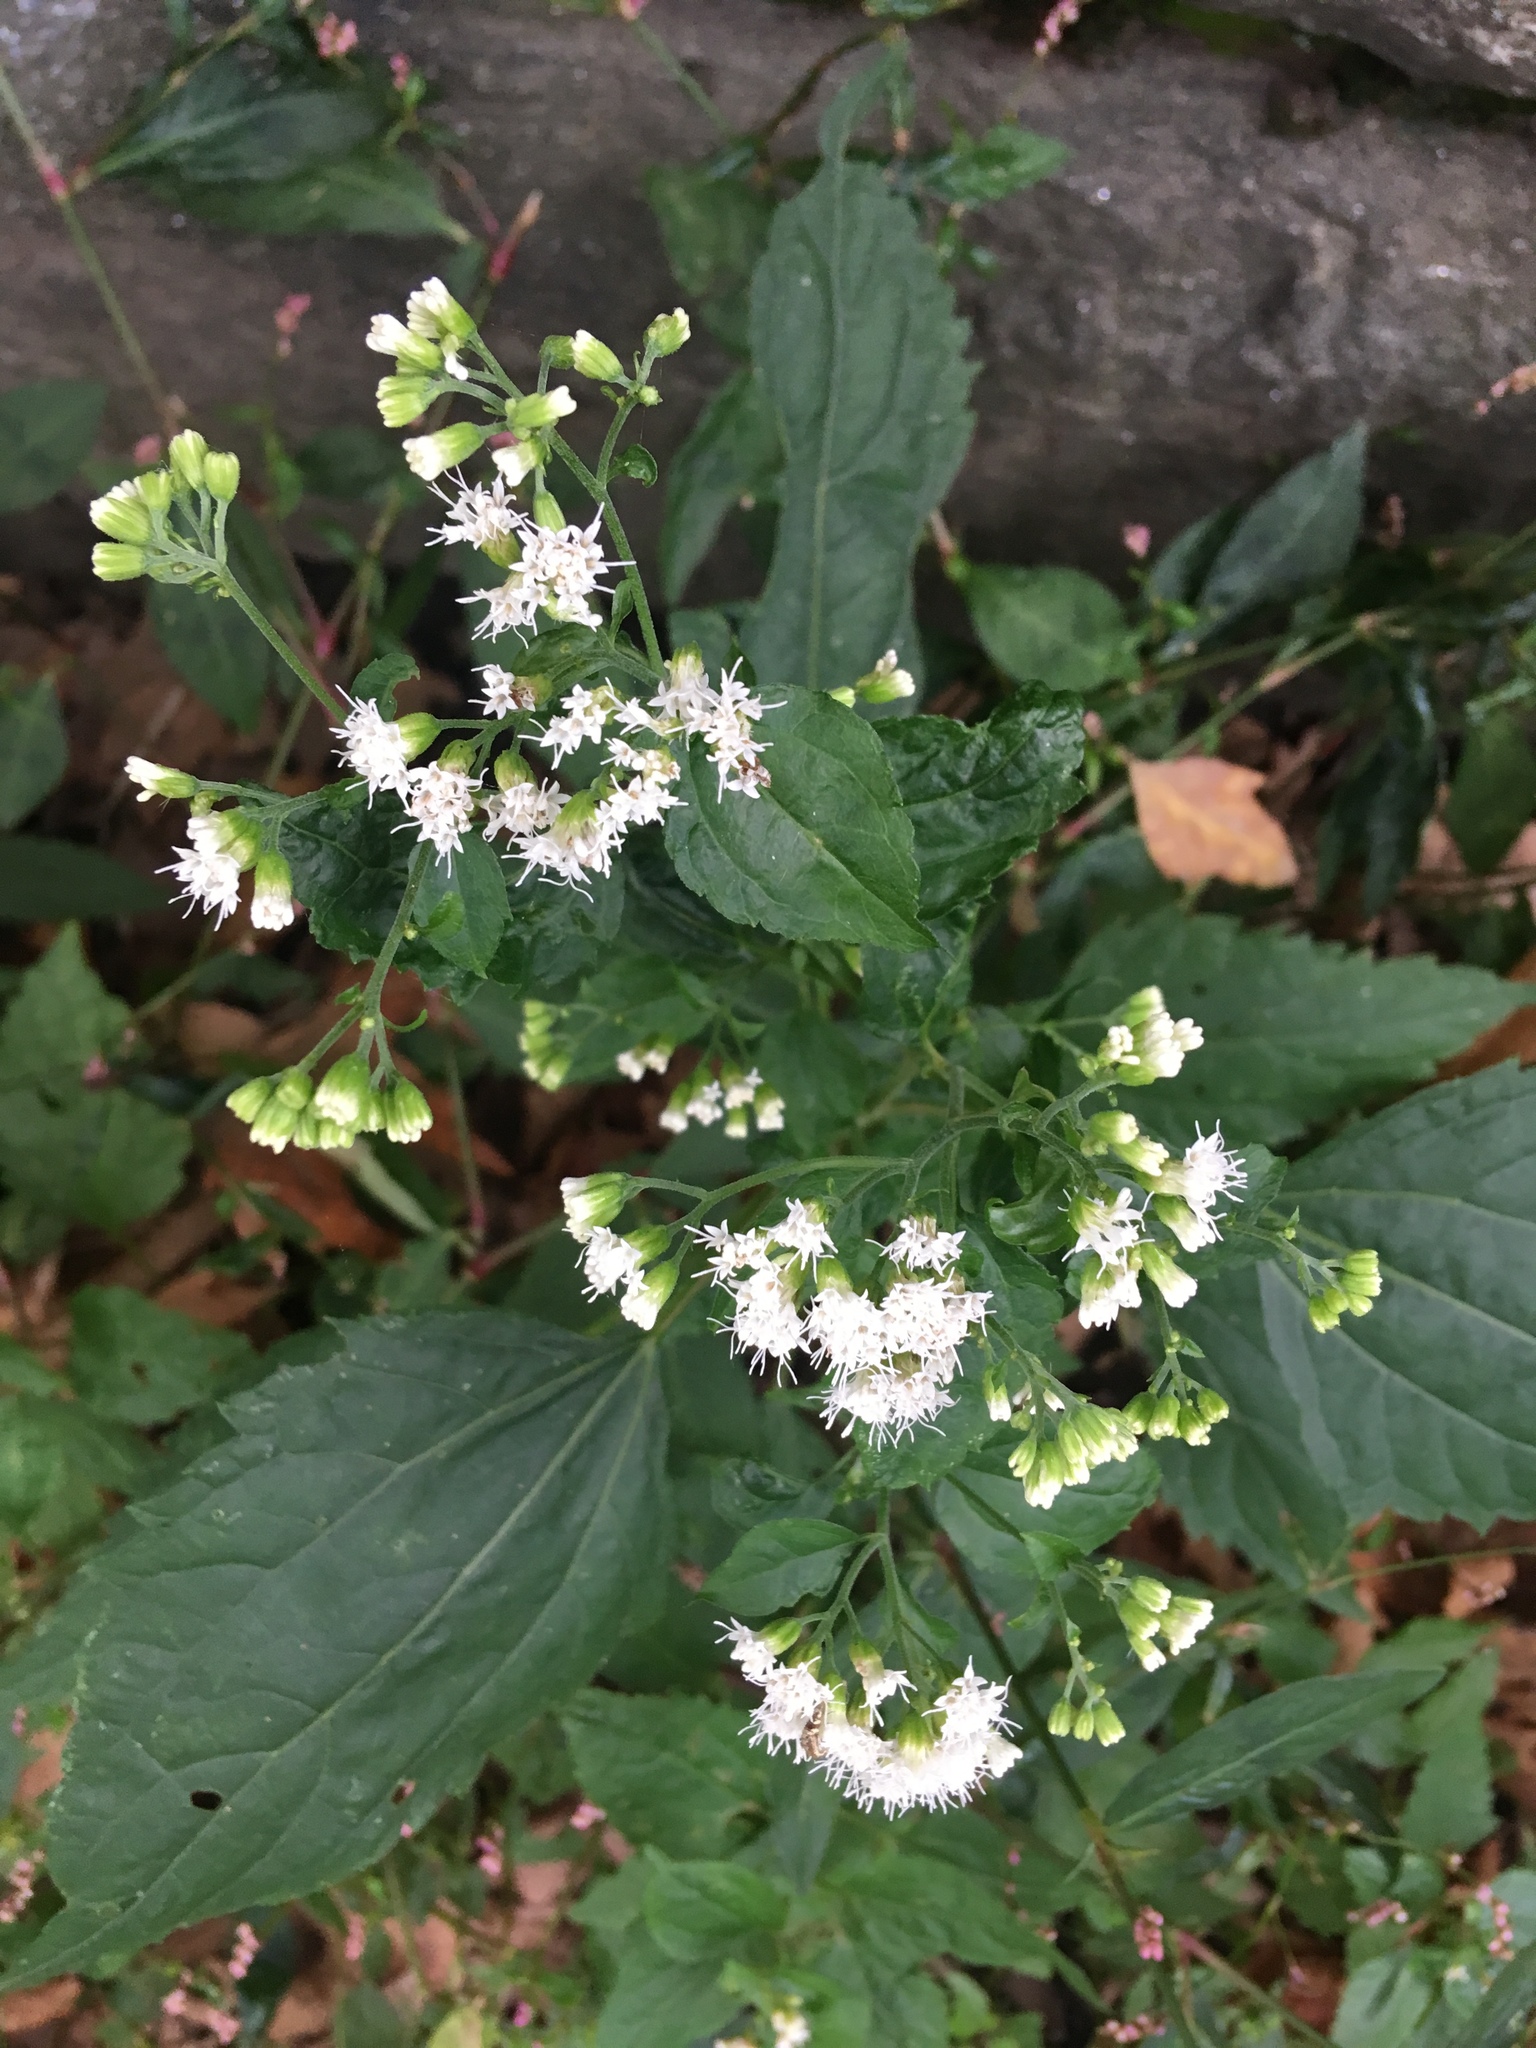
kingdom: Plantae
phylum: Tracheophyta
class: Magnoliopsida
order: Asterales
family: Asteraceae
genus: Ageratina
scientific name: Ageratina altissima
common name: White snakeroot
